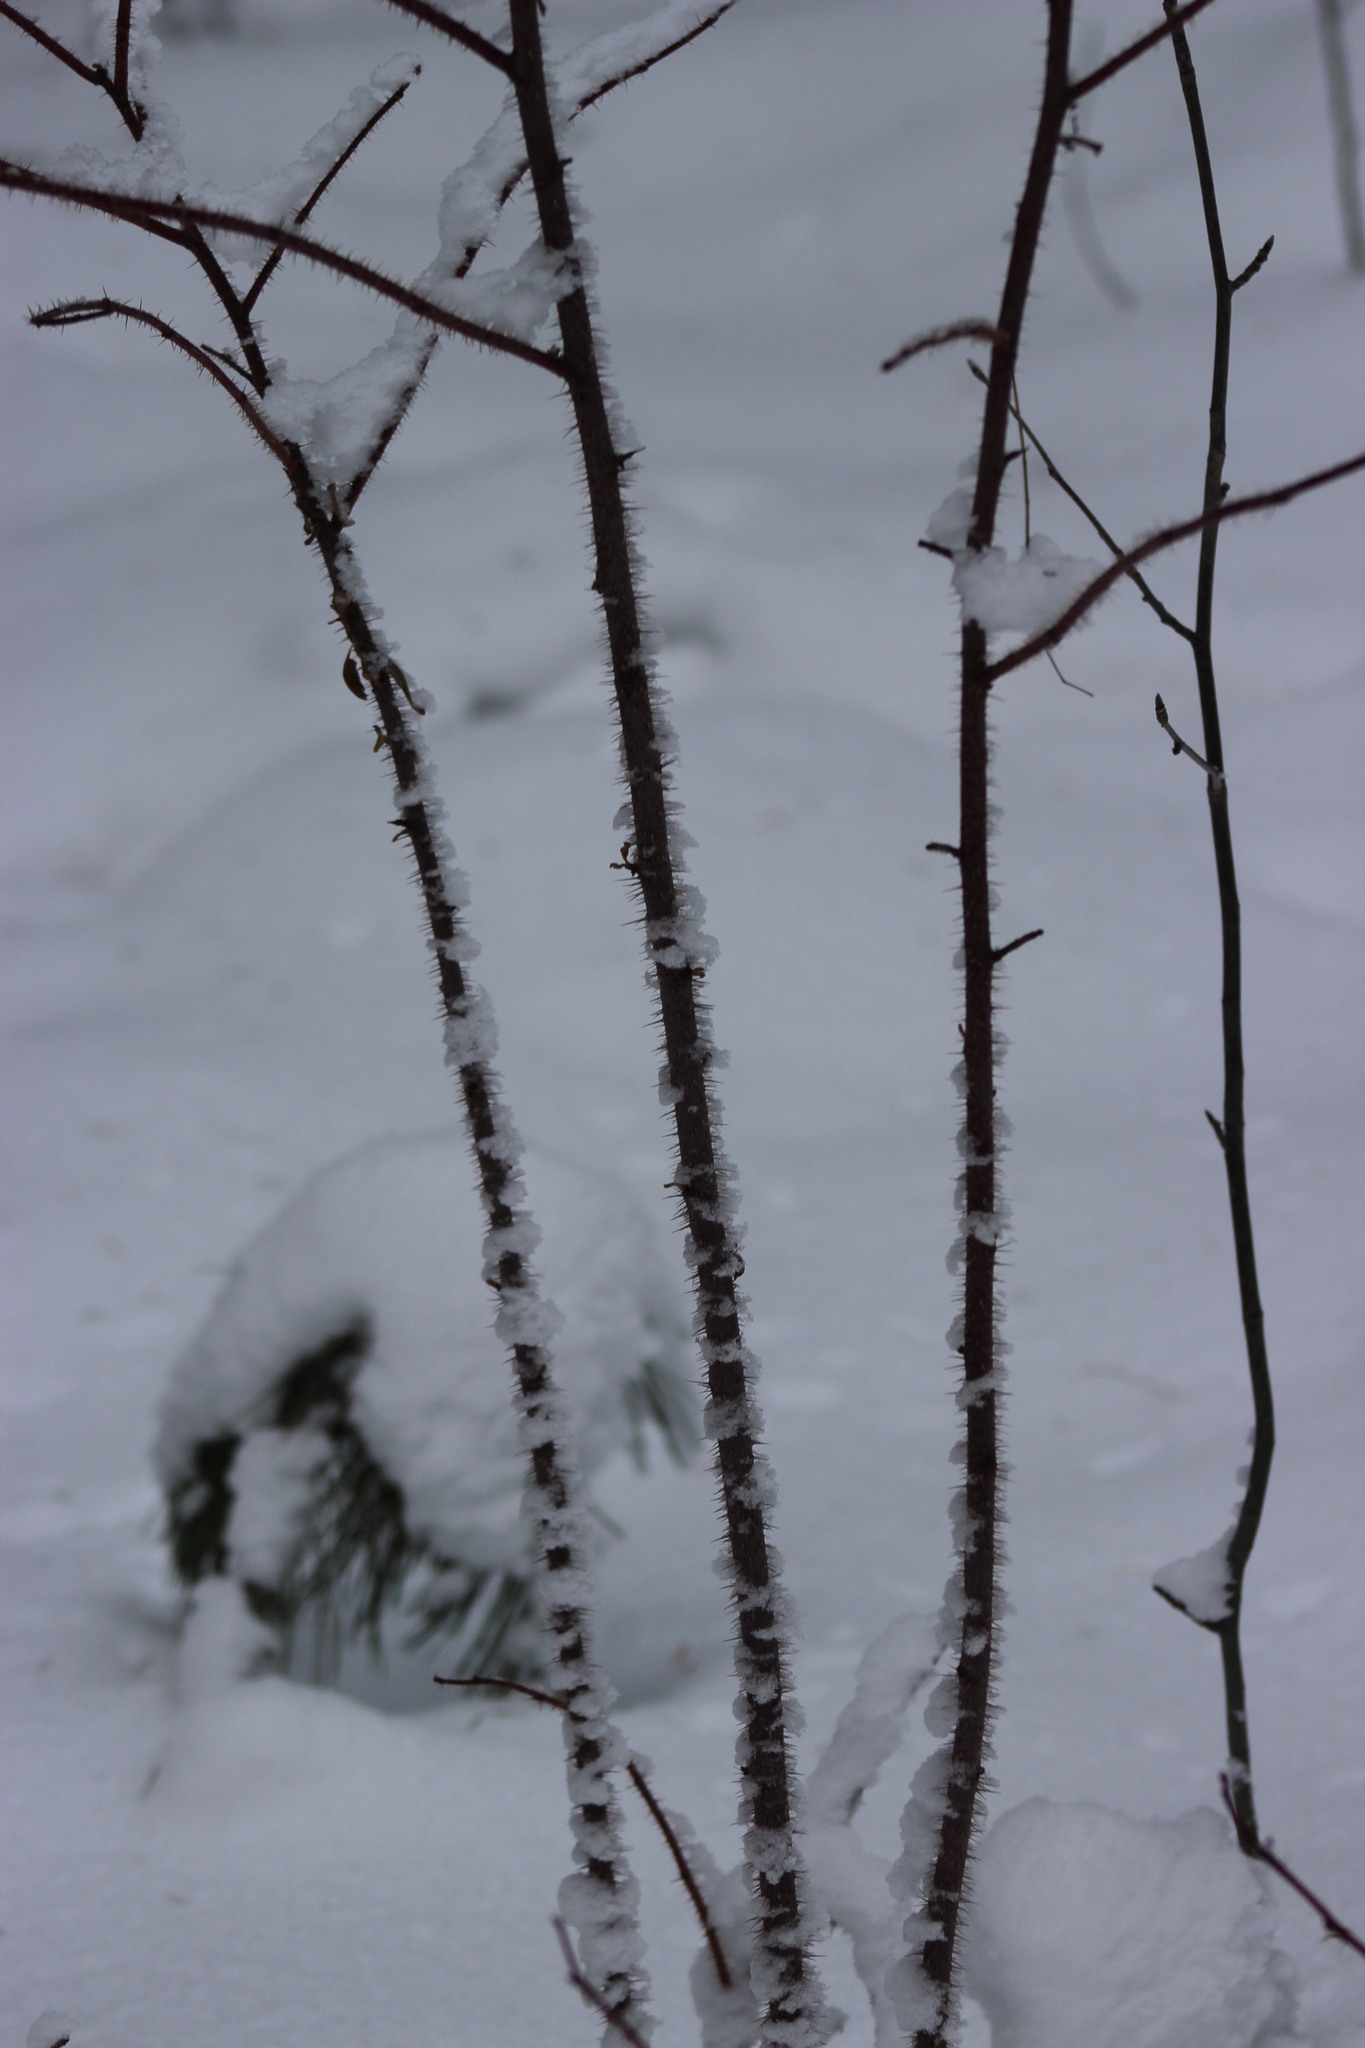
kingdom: Plantae
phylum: Tracheophyta
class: Magnoliopsida
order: Rosales
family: Rosaceae
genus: Rosa
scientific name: Rosa acicularis
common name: Prickly rose
